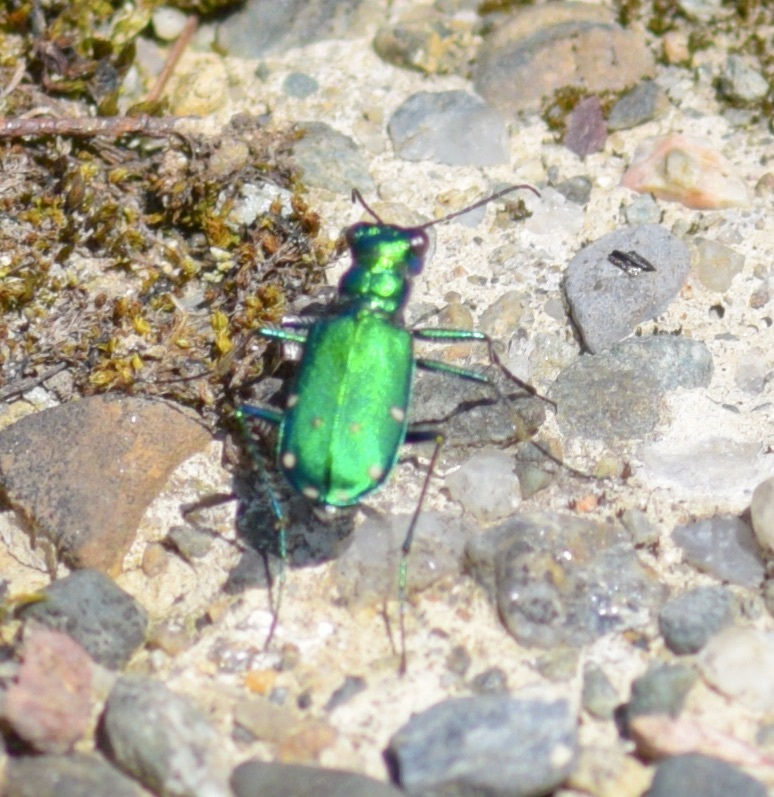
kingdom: Animalia
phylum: Arthropoda
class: Insecta
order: Coleoptera
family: Carabidae
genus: Cicindela
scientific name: Cicindela sexguttata
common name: Six-spotted tiger beetle
